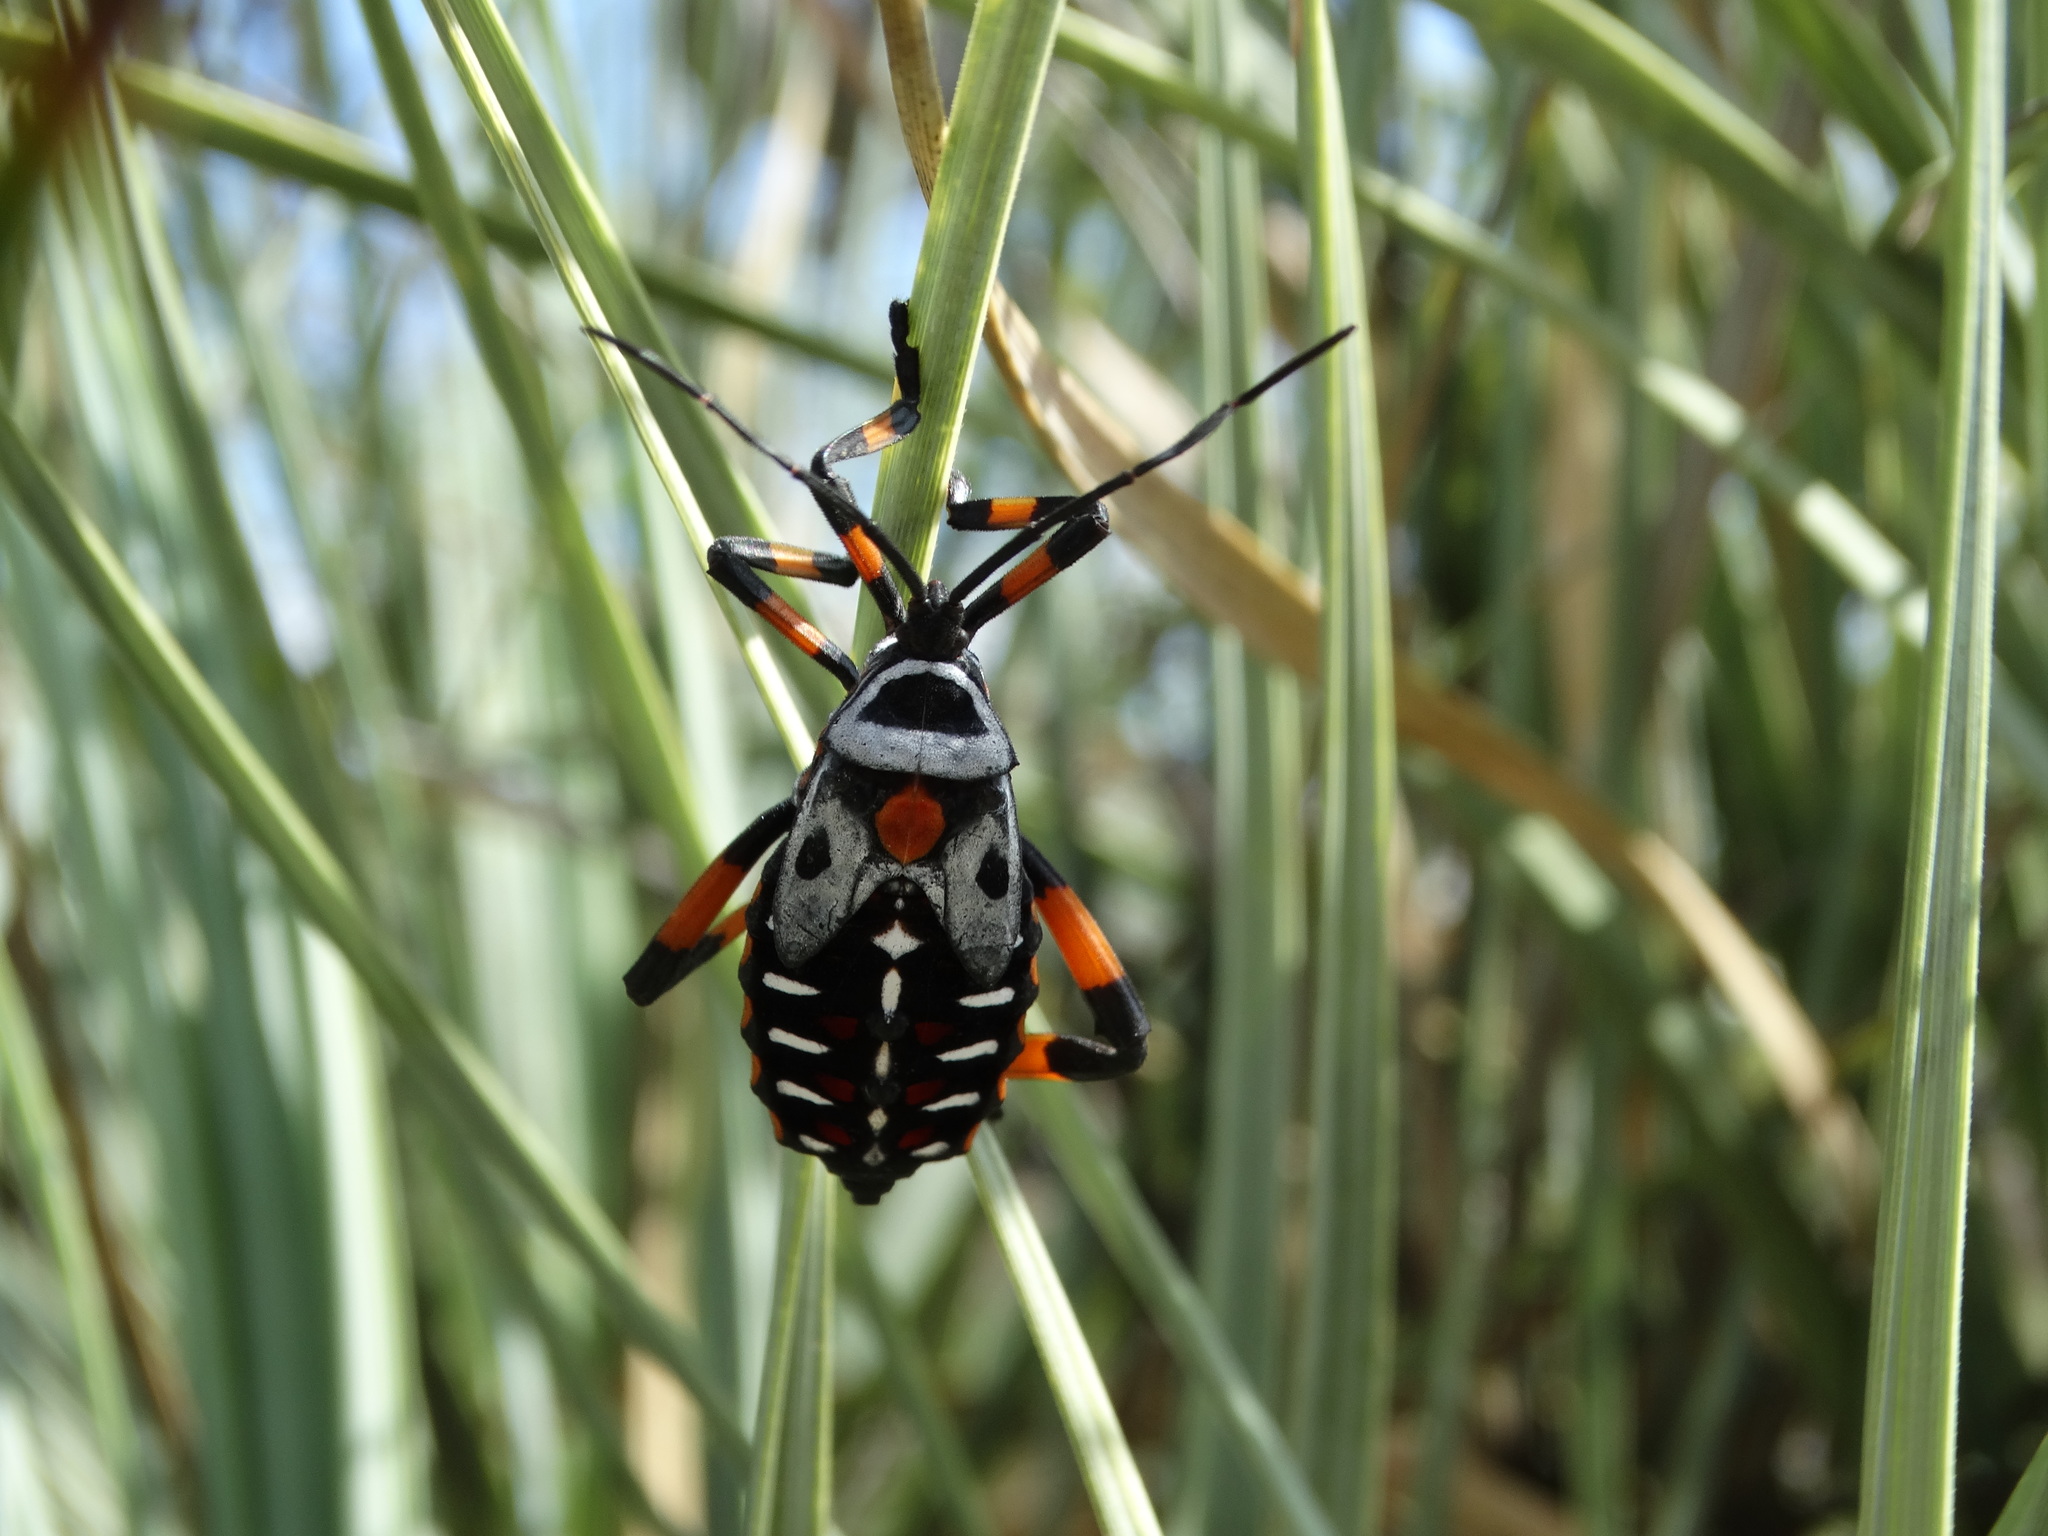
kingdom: Animalia
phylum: Arthropoda
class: Insecta
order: Hemiptera
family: Coreidae
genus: Thasus
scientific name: Thasus
